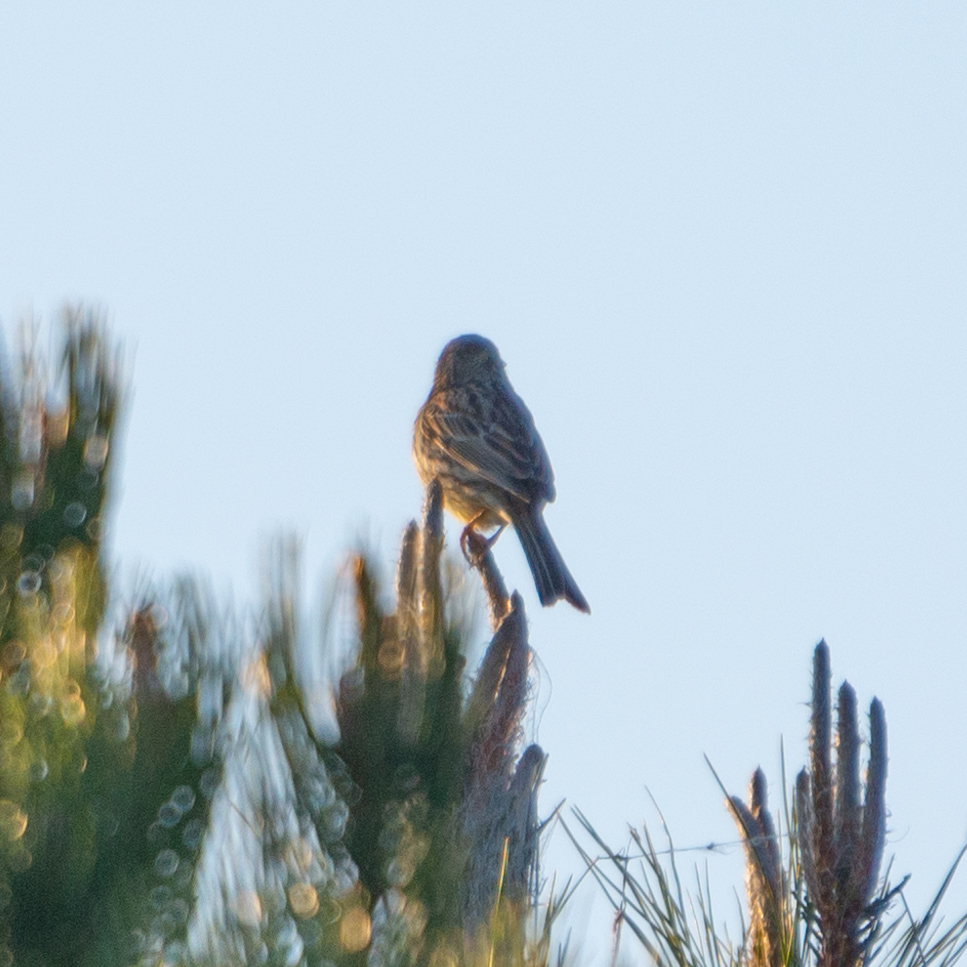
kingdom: Animalia
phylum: Chordata
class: Aves
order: Passeriformes
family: Emberizidae
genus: Emberiza
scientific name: Emberiza cirlus
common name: Cirl bunting
